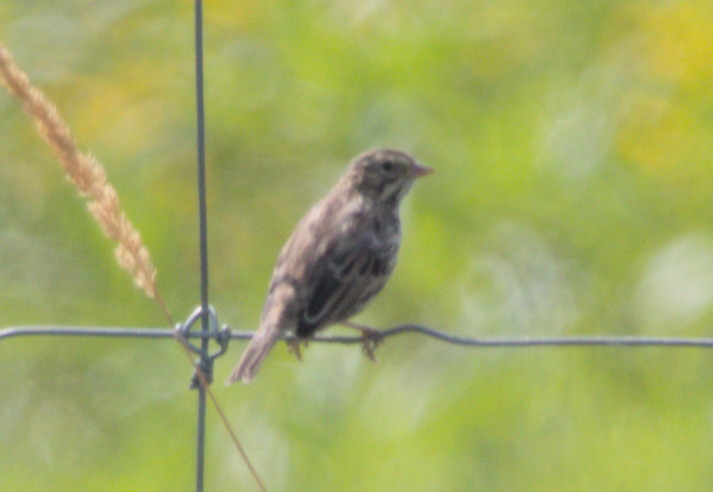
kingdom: Animalia
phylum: Chordata
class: Aves
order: Passeriformes
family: Passerellidae
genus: Passerculus
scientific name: Passerculus sandwichensis
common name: Savannah sparrow
